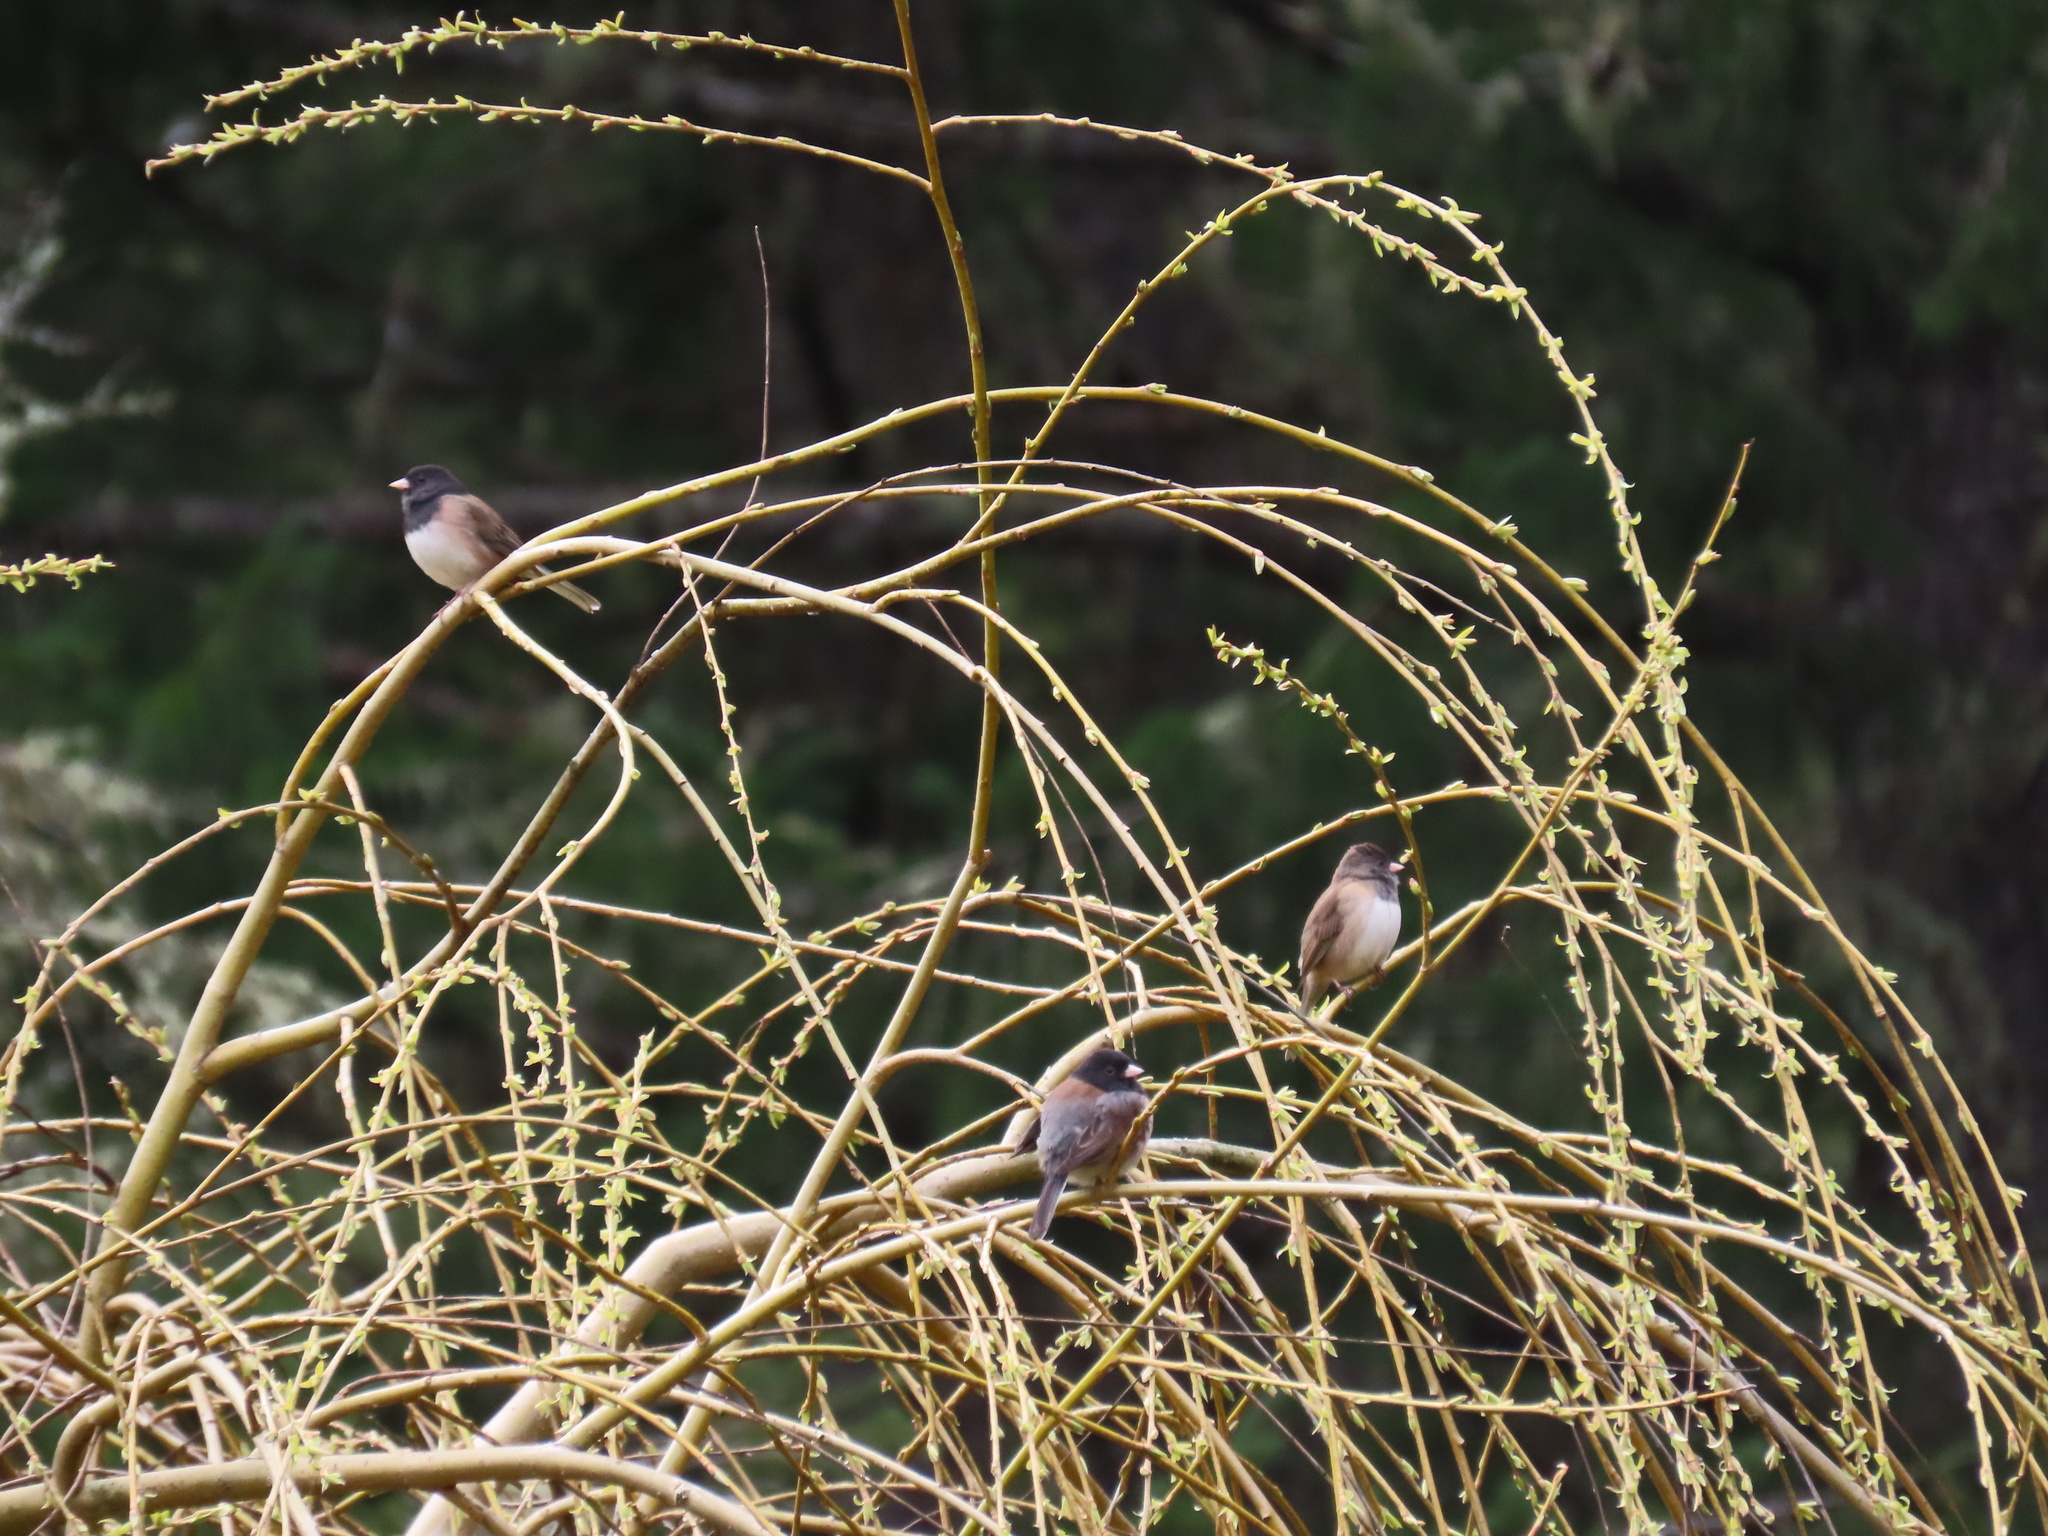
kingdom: Animalia
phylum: Chordata
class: Aves
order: Passeriformes
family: Passerellidae
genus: Junco
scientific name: Junco hyemalis
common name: Dark-eyed junco
